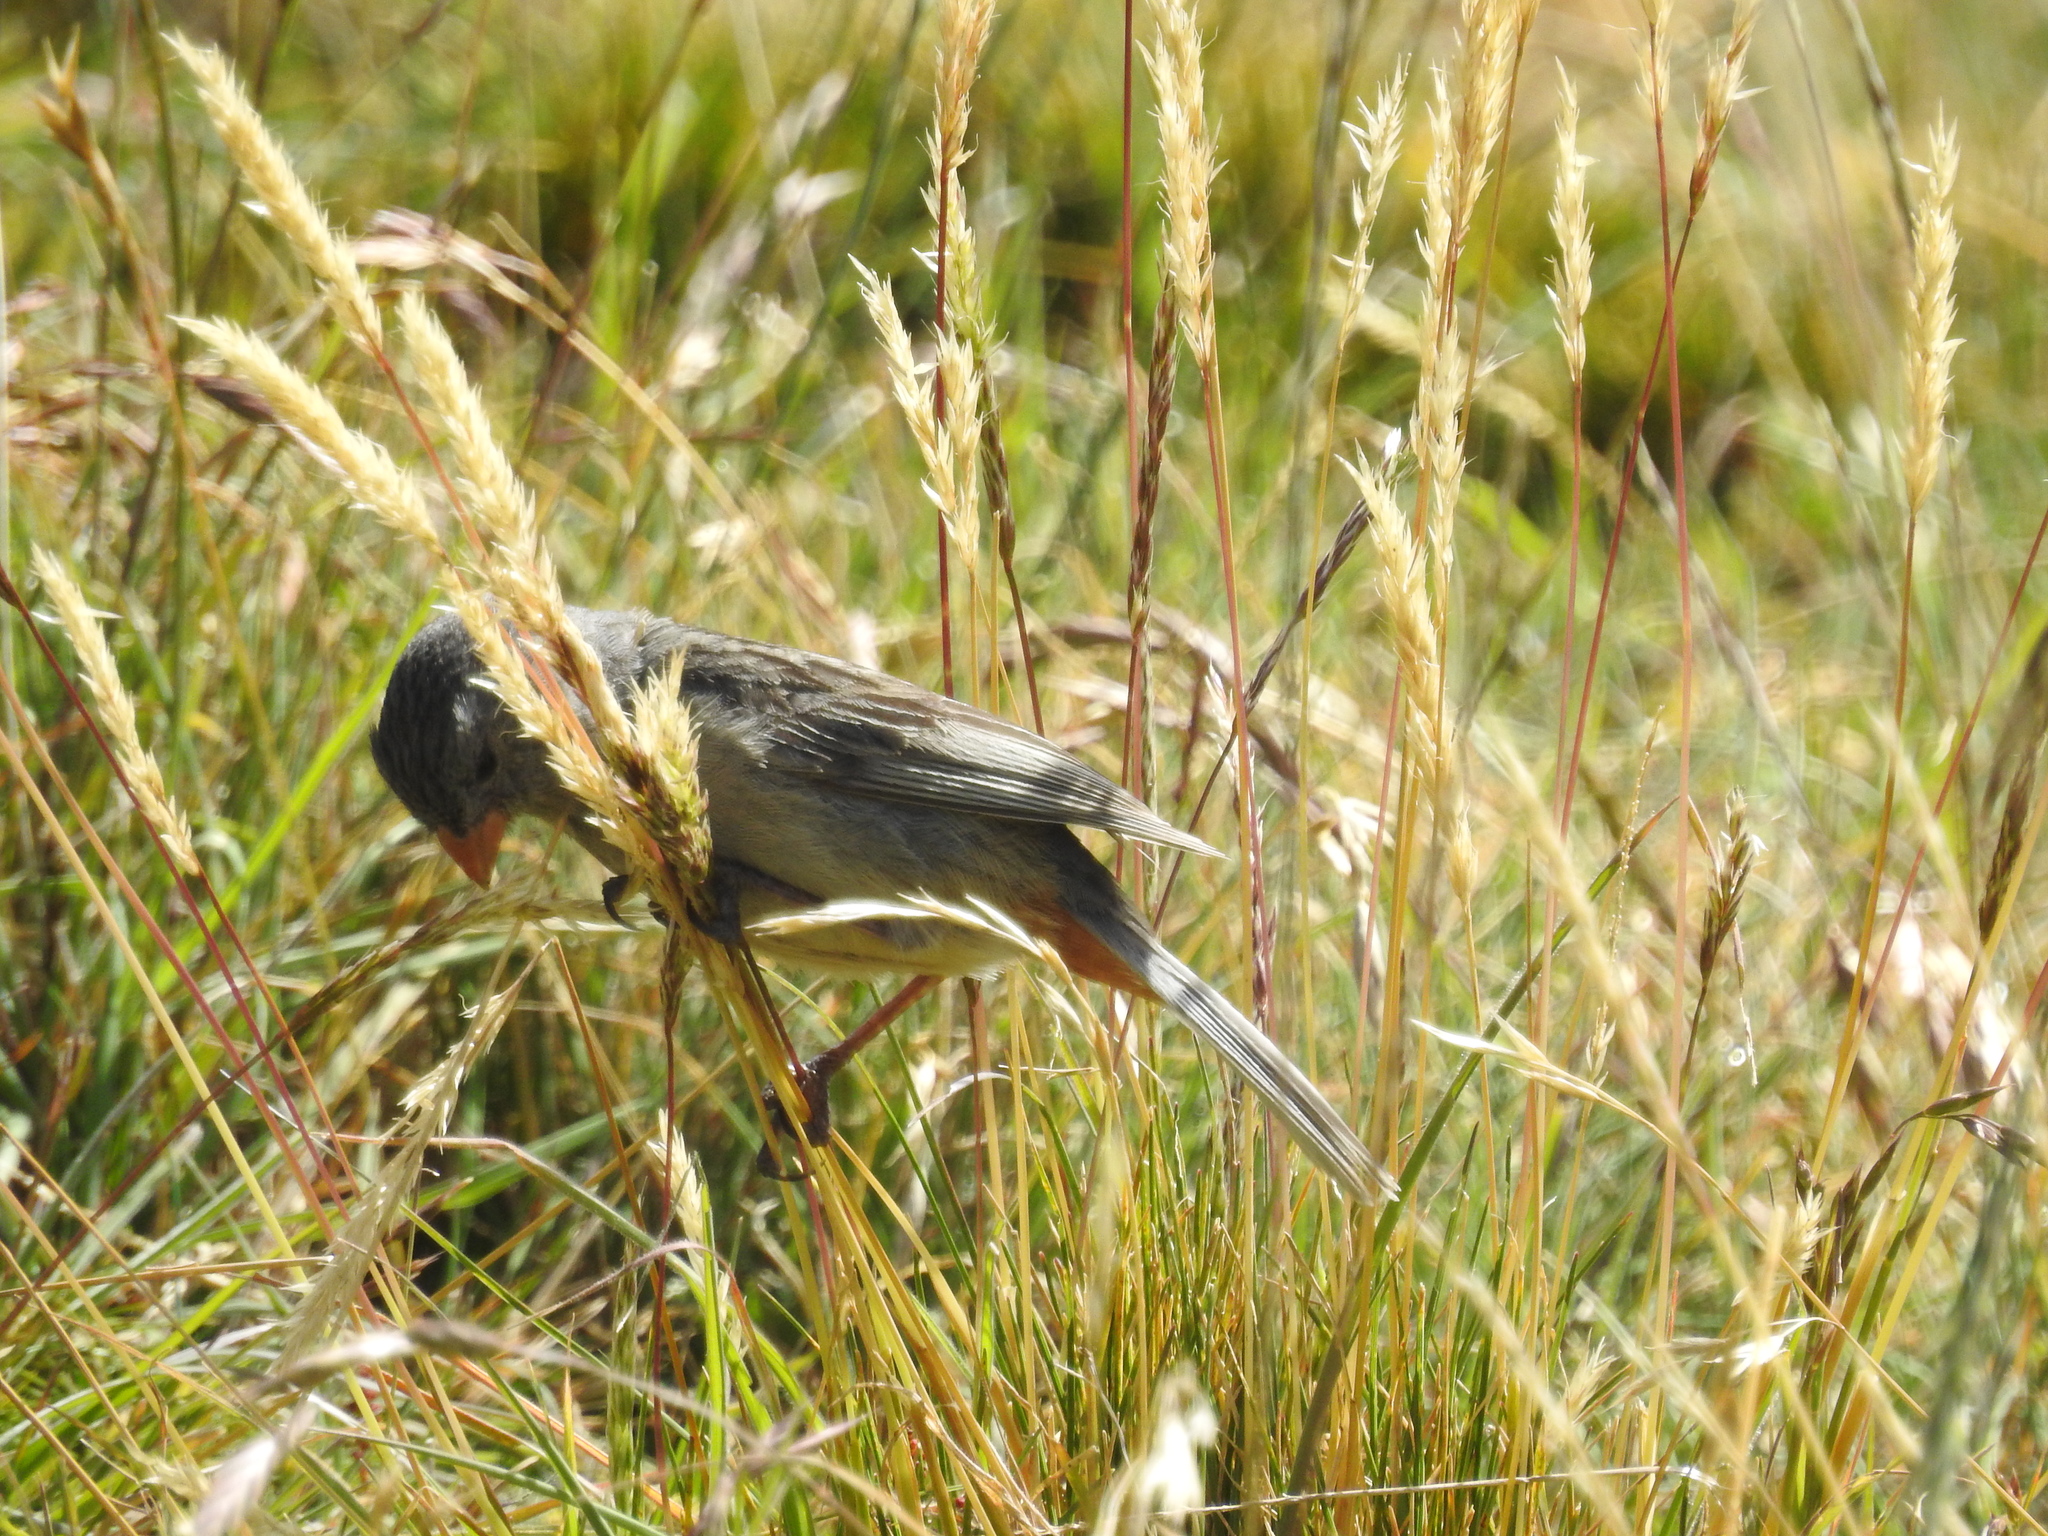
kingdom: Animalia
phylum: Chordata
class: Aves
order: Passeriformes
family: Thraupidae
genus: Catamenia
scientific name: Catamenia inornata
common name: Plain-colored seedeater
